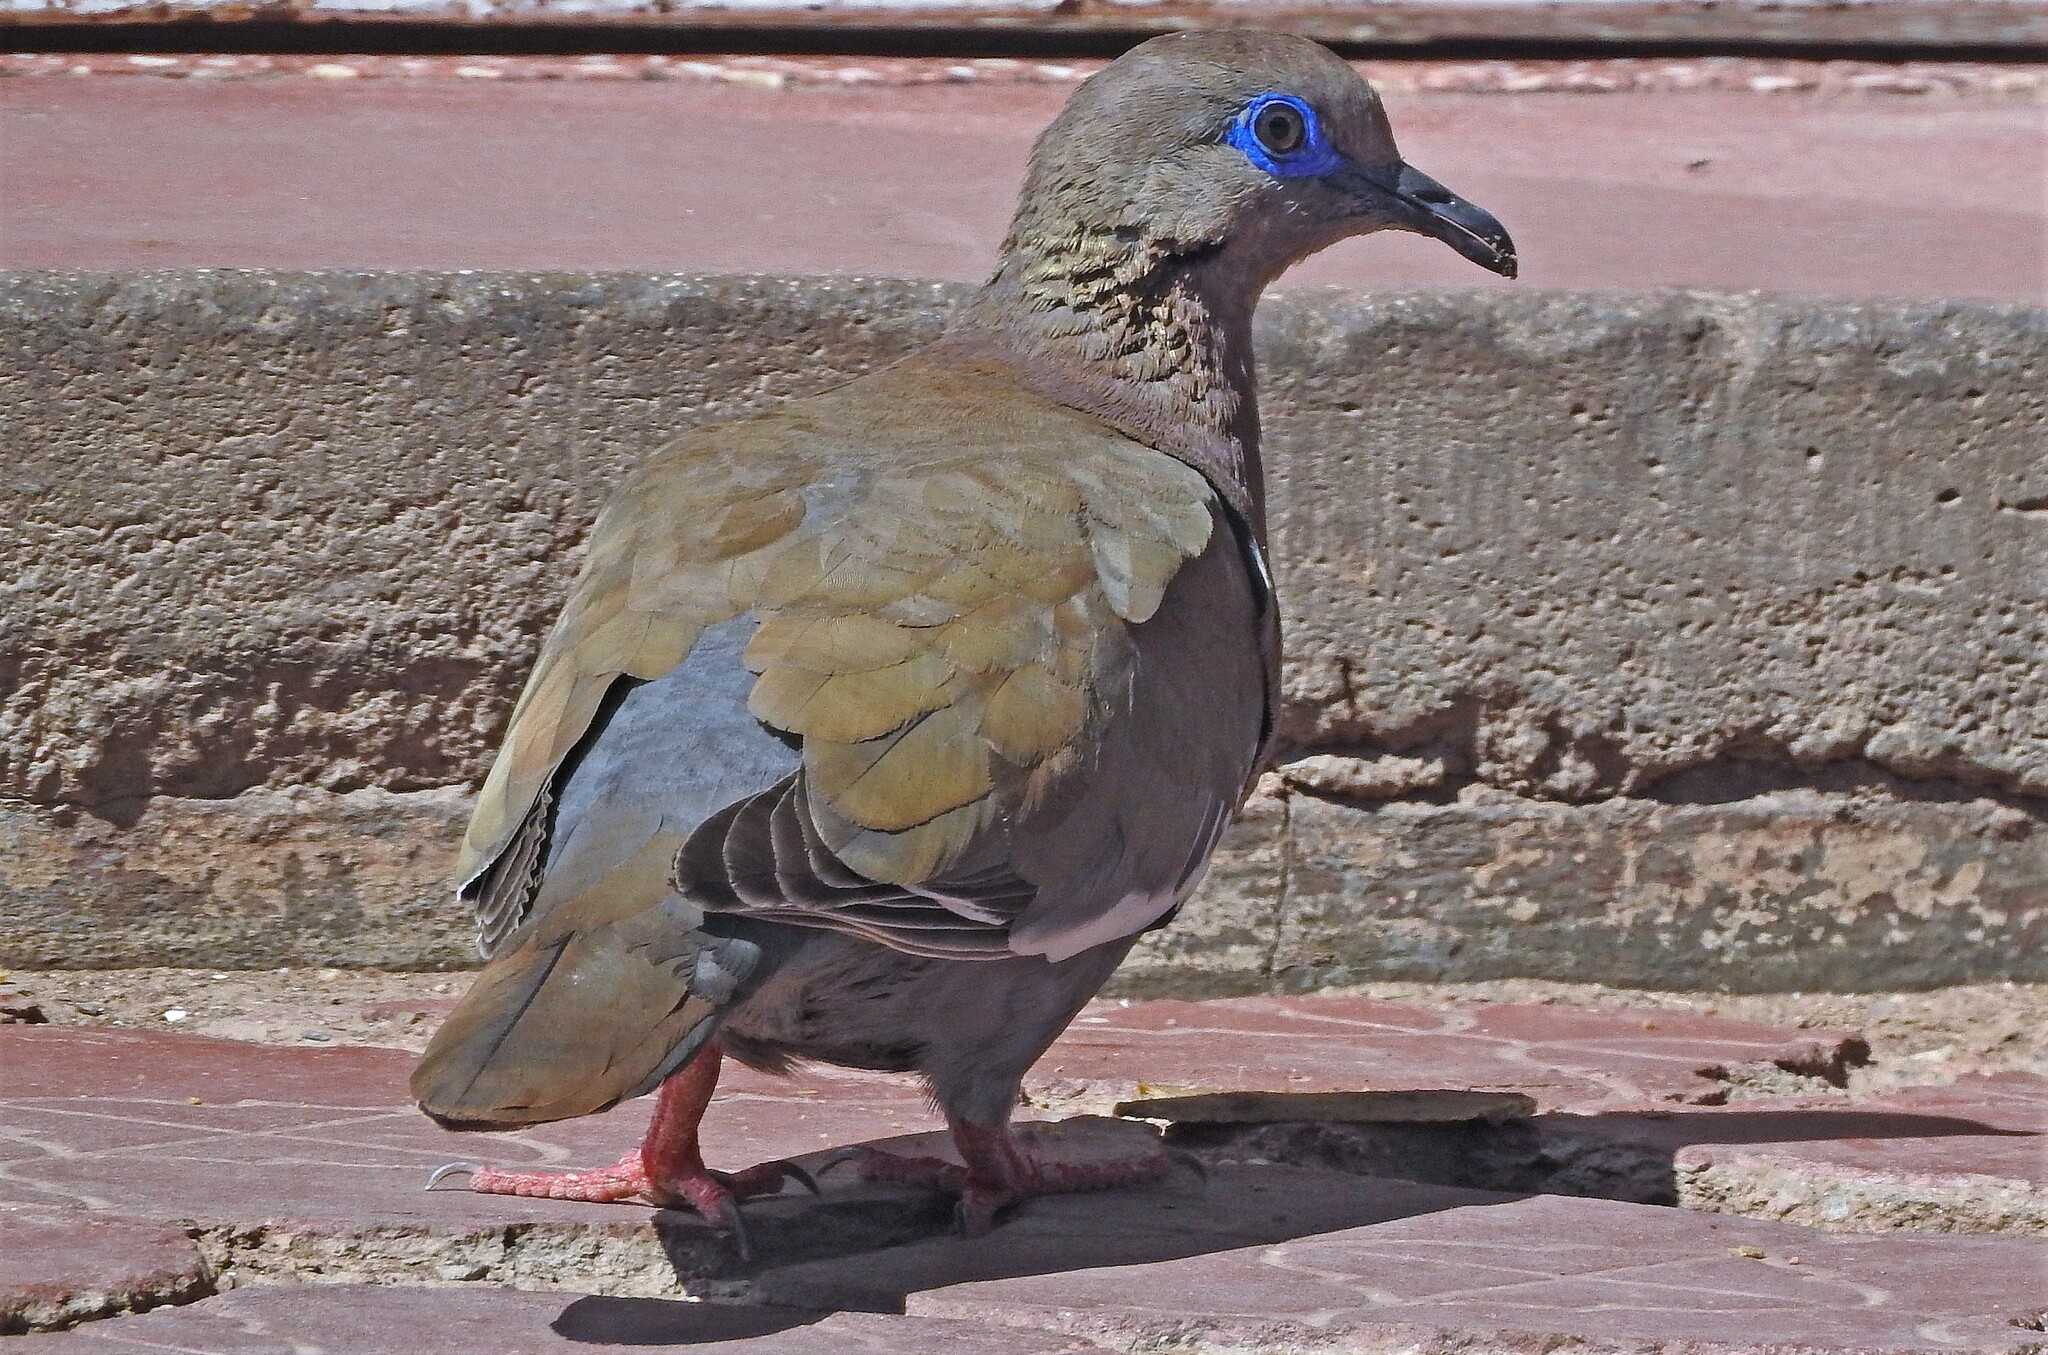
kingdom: Animalia
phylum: Chordata
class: Aves
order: Columbiformes
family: Columbidae
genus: Zenaida
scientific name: Zenaida meloda
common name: West peruvian dove
